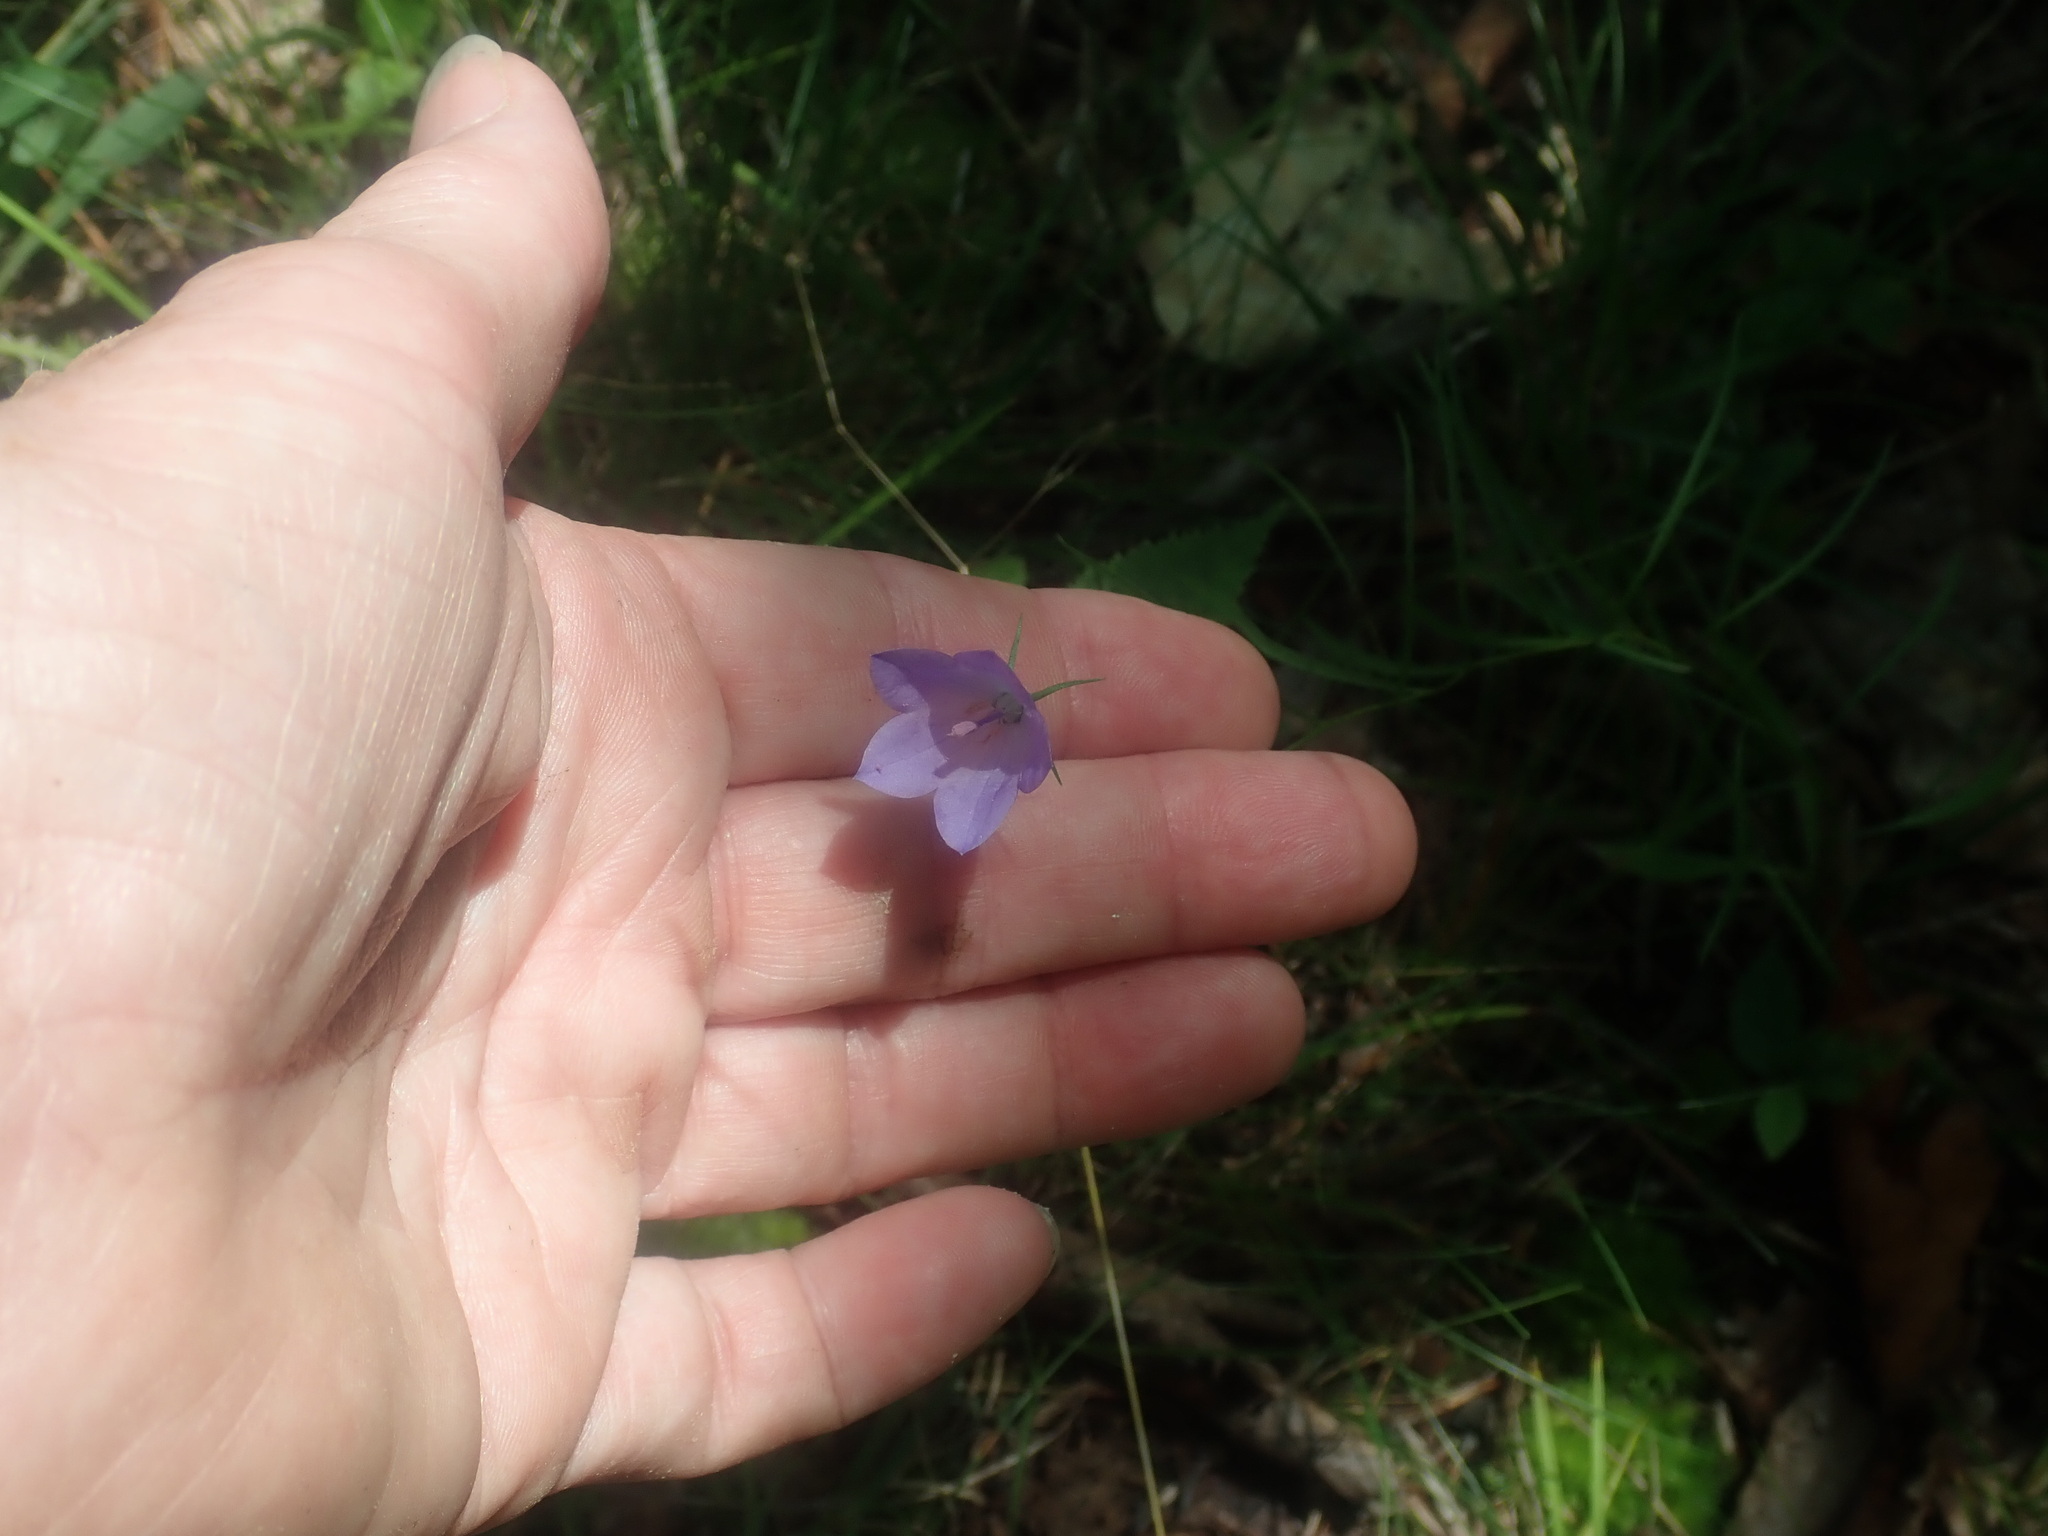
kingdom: Plantae
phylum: Tracheophyta
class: Magnoliopsida
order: Asterales
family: Campanulaceae
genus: Campanula
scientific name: Campanula intercedens
